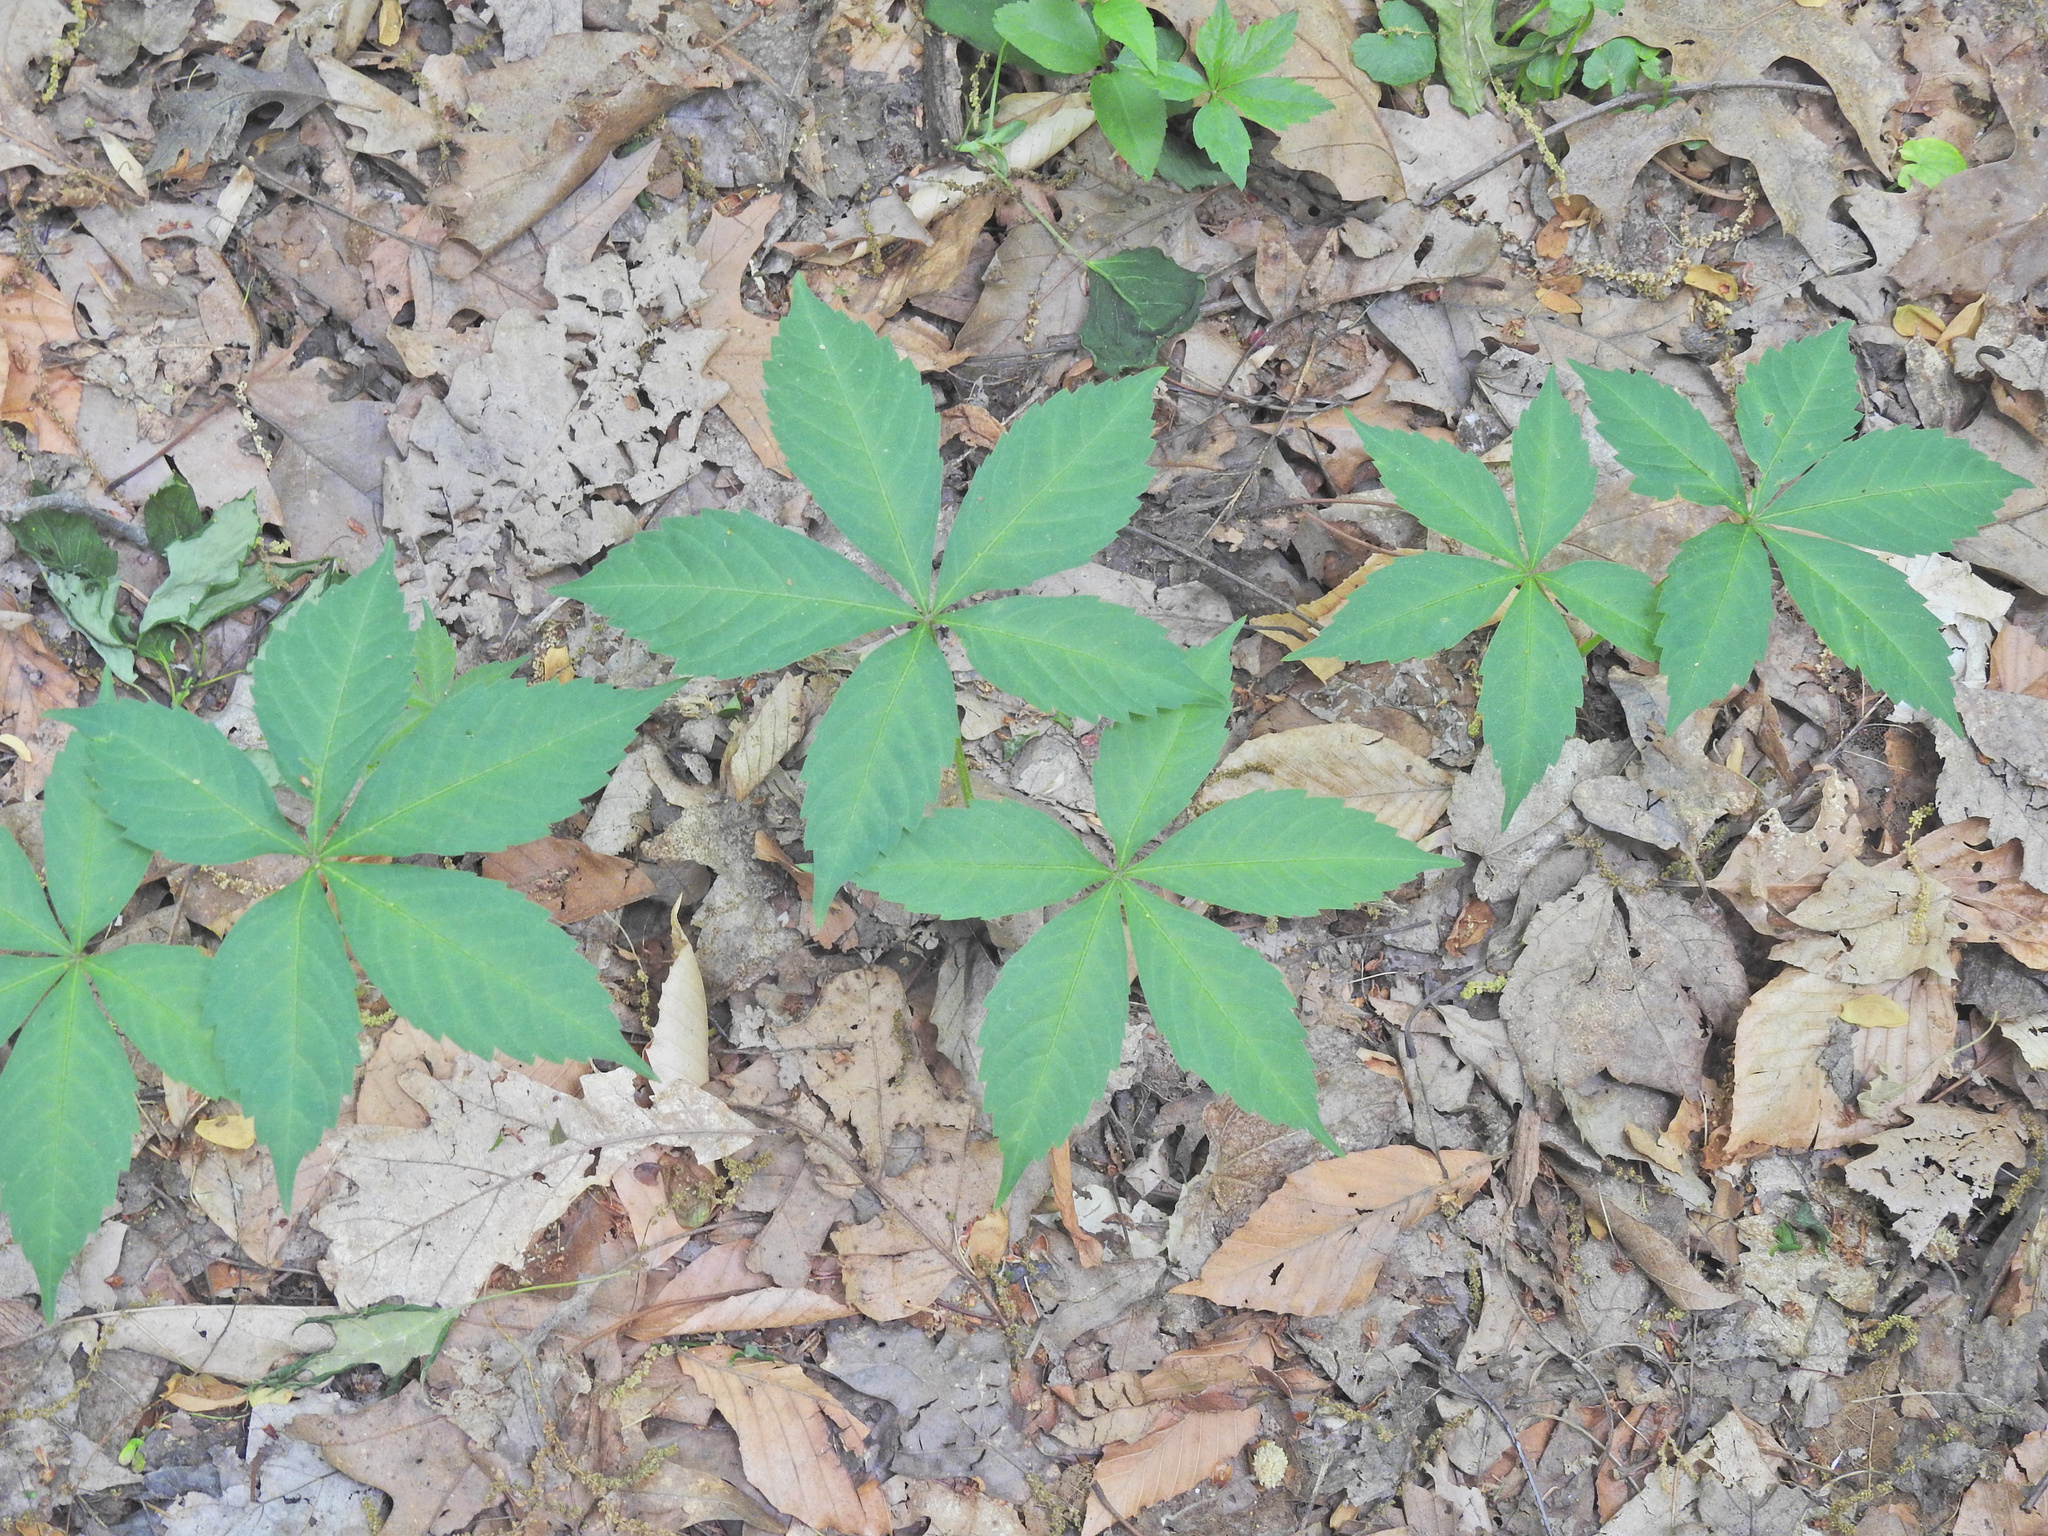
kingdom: Plantae
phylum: Tracheophyta
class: Magnoliopsida
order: Vitales
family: Vitaceae
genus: Parthenocissus
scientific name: Parthenocissus quinquefolia
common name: Virginia-creeper
